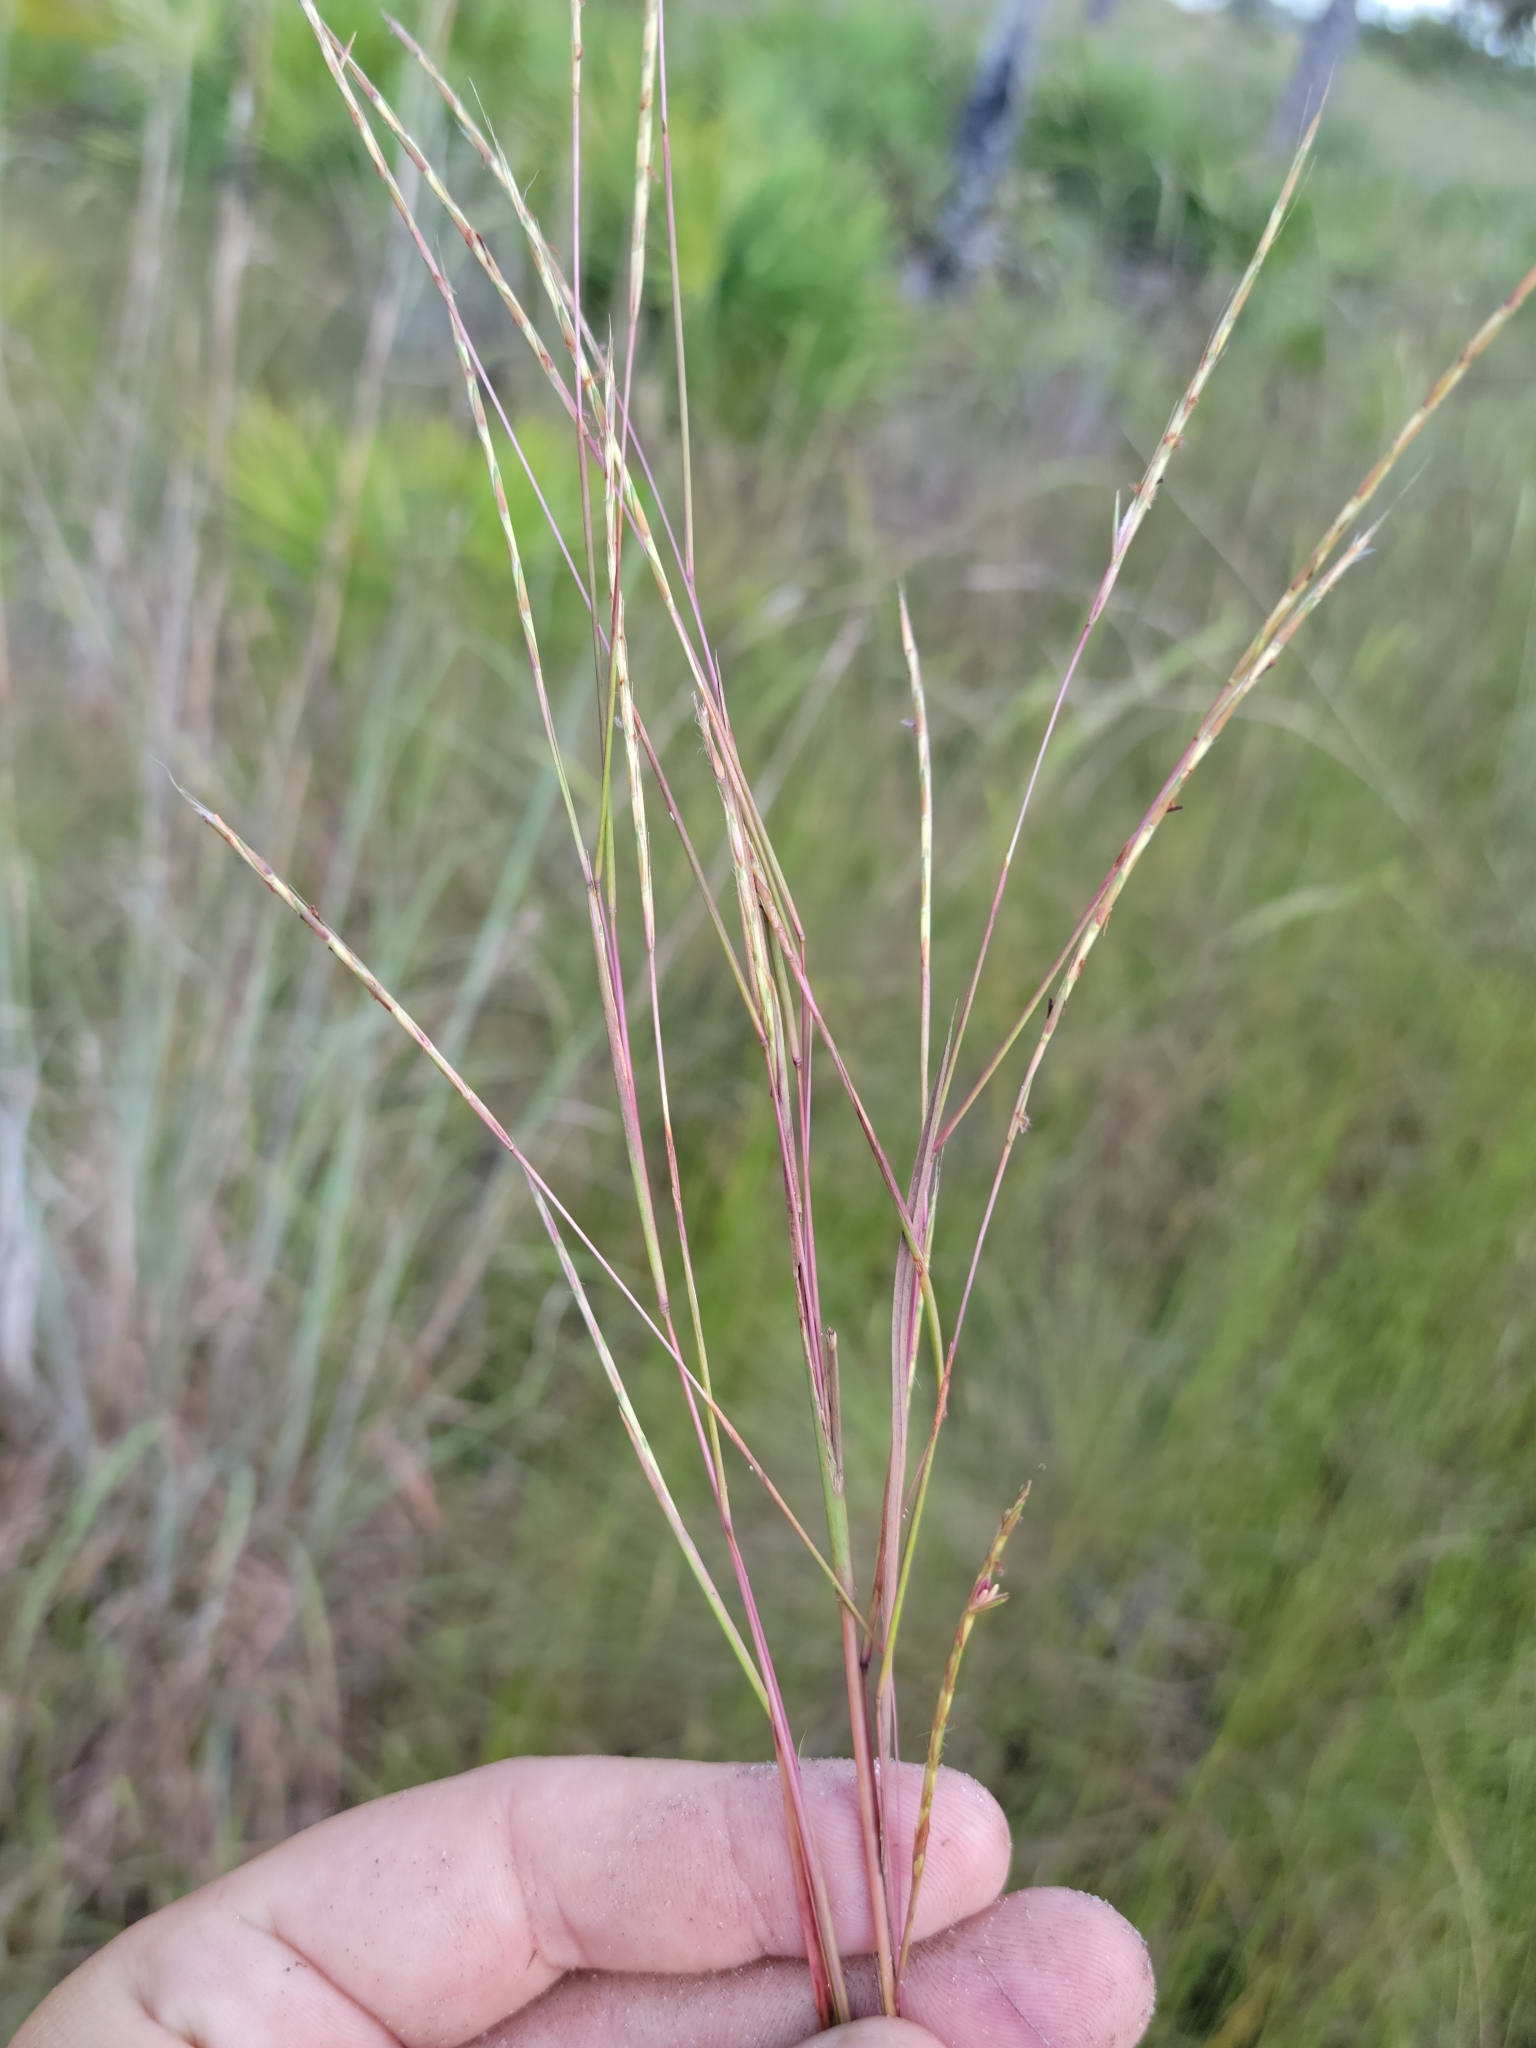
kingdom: Plantae
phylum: Tracheophyta
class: Liliopsida
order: Poales
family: Poaceae
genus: Andropogon
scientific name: Andropogon stolonifer
